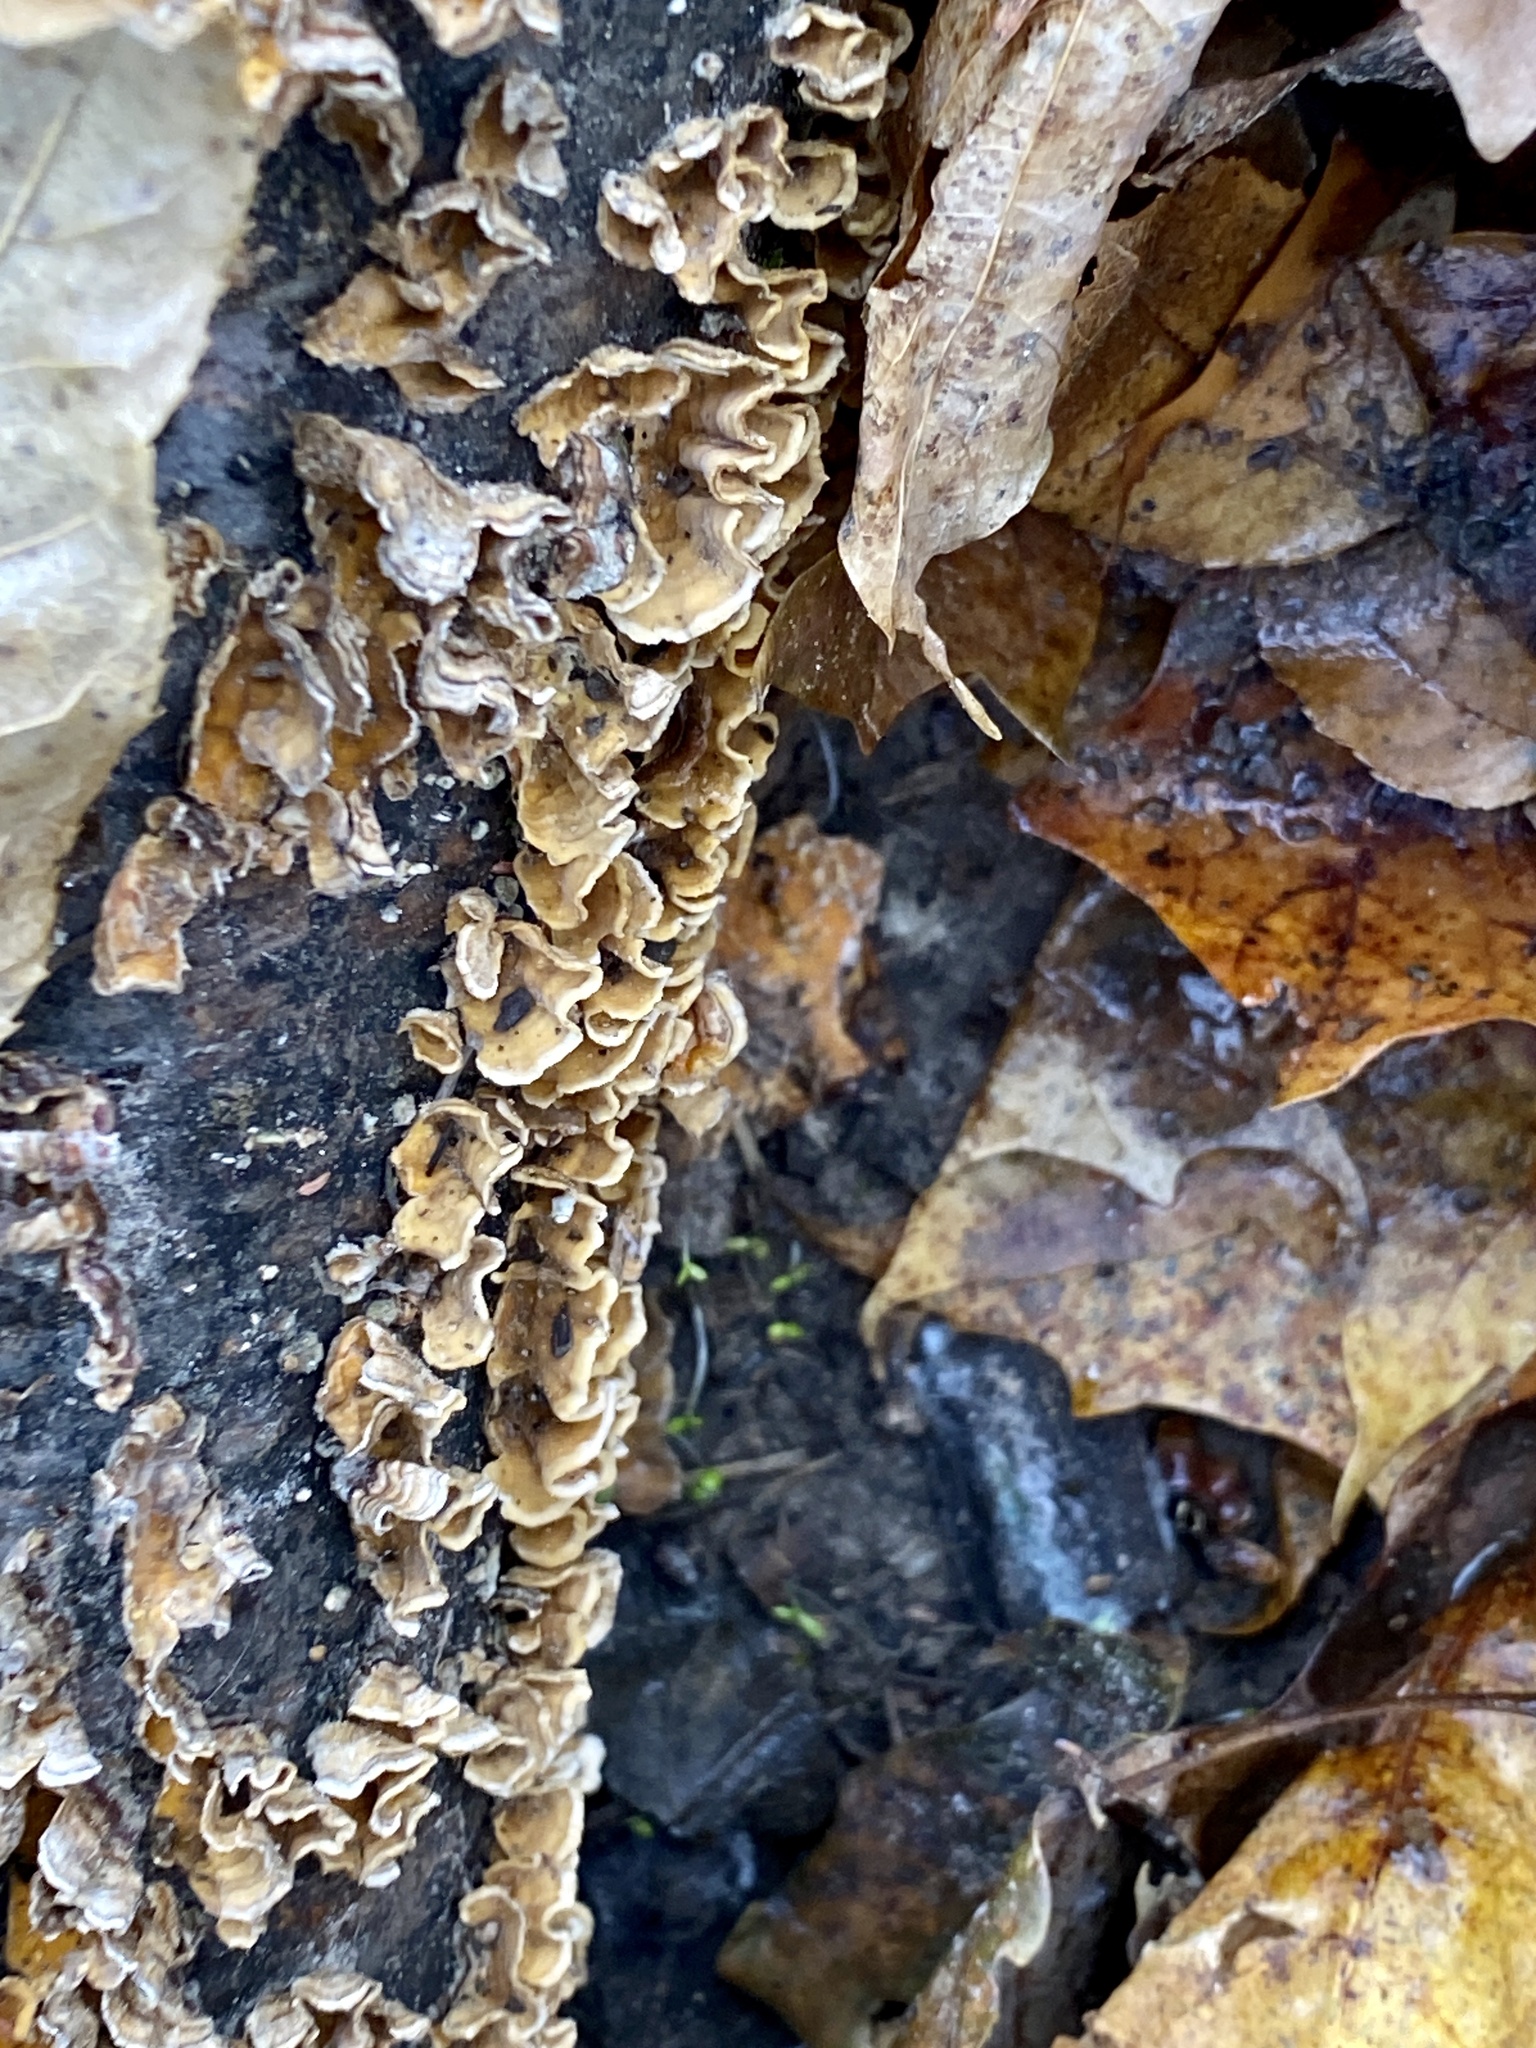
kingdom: Fungi
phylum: Basidiomycota
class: Agaricomycetes
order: Russulales
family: Stereaceae
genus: Stereum
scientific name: Stereum complicatum
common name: Crowded parchment
